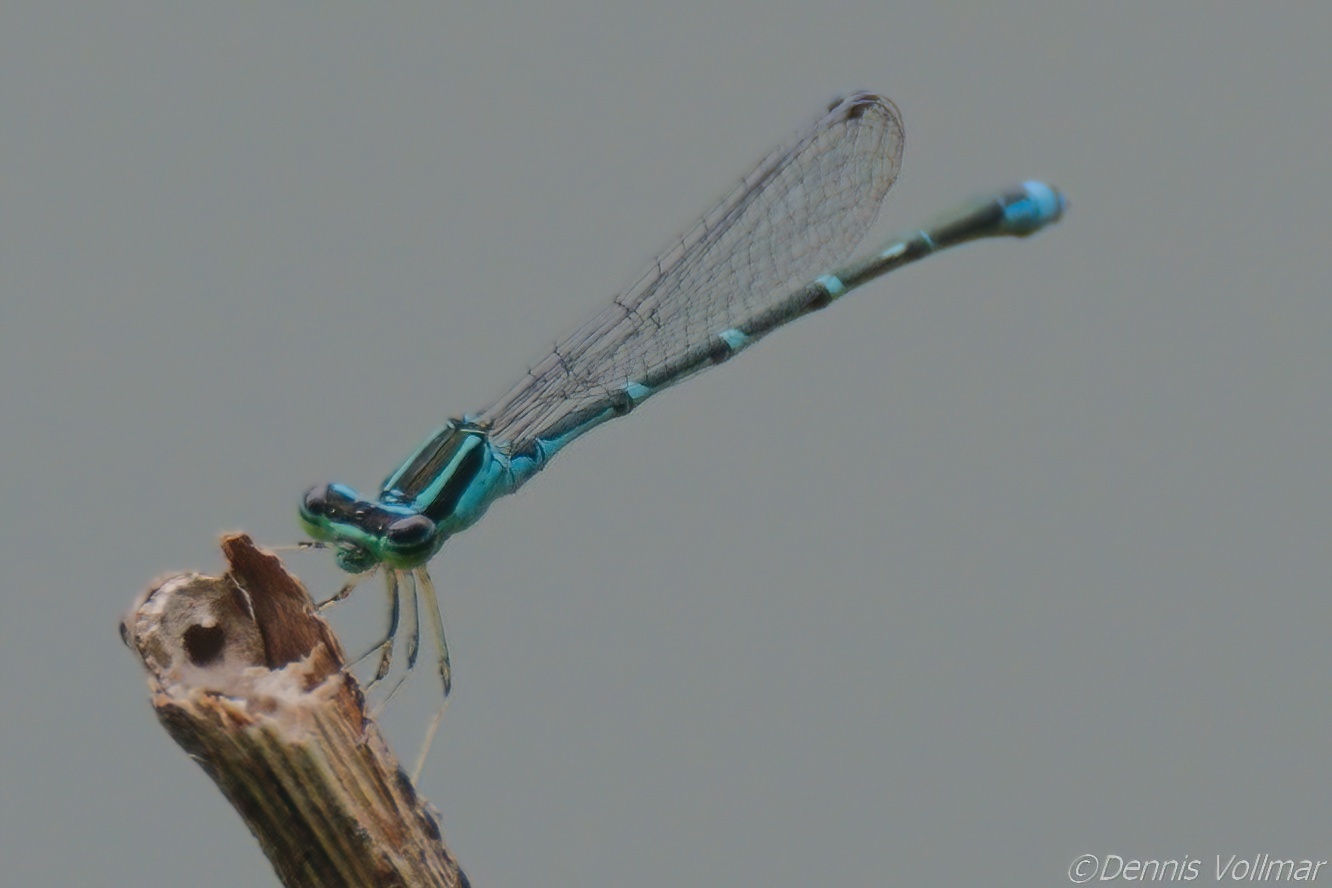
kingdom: Animalia
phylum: Arthropoda
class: Insecta
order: Odonata
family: Coenagrionidae
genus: Enallagma
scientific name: Enallagma exsulans
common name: Stream bluet
